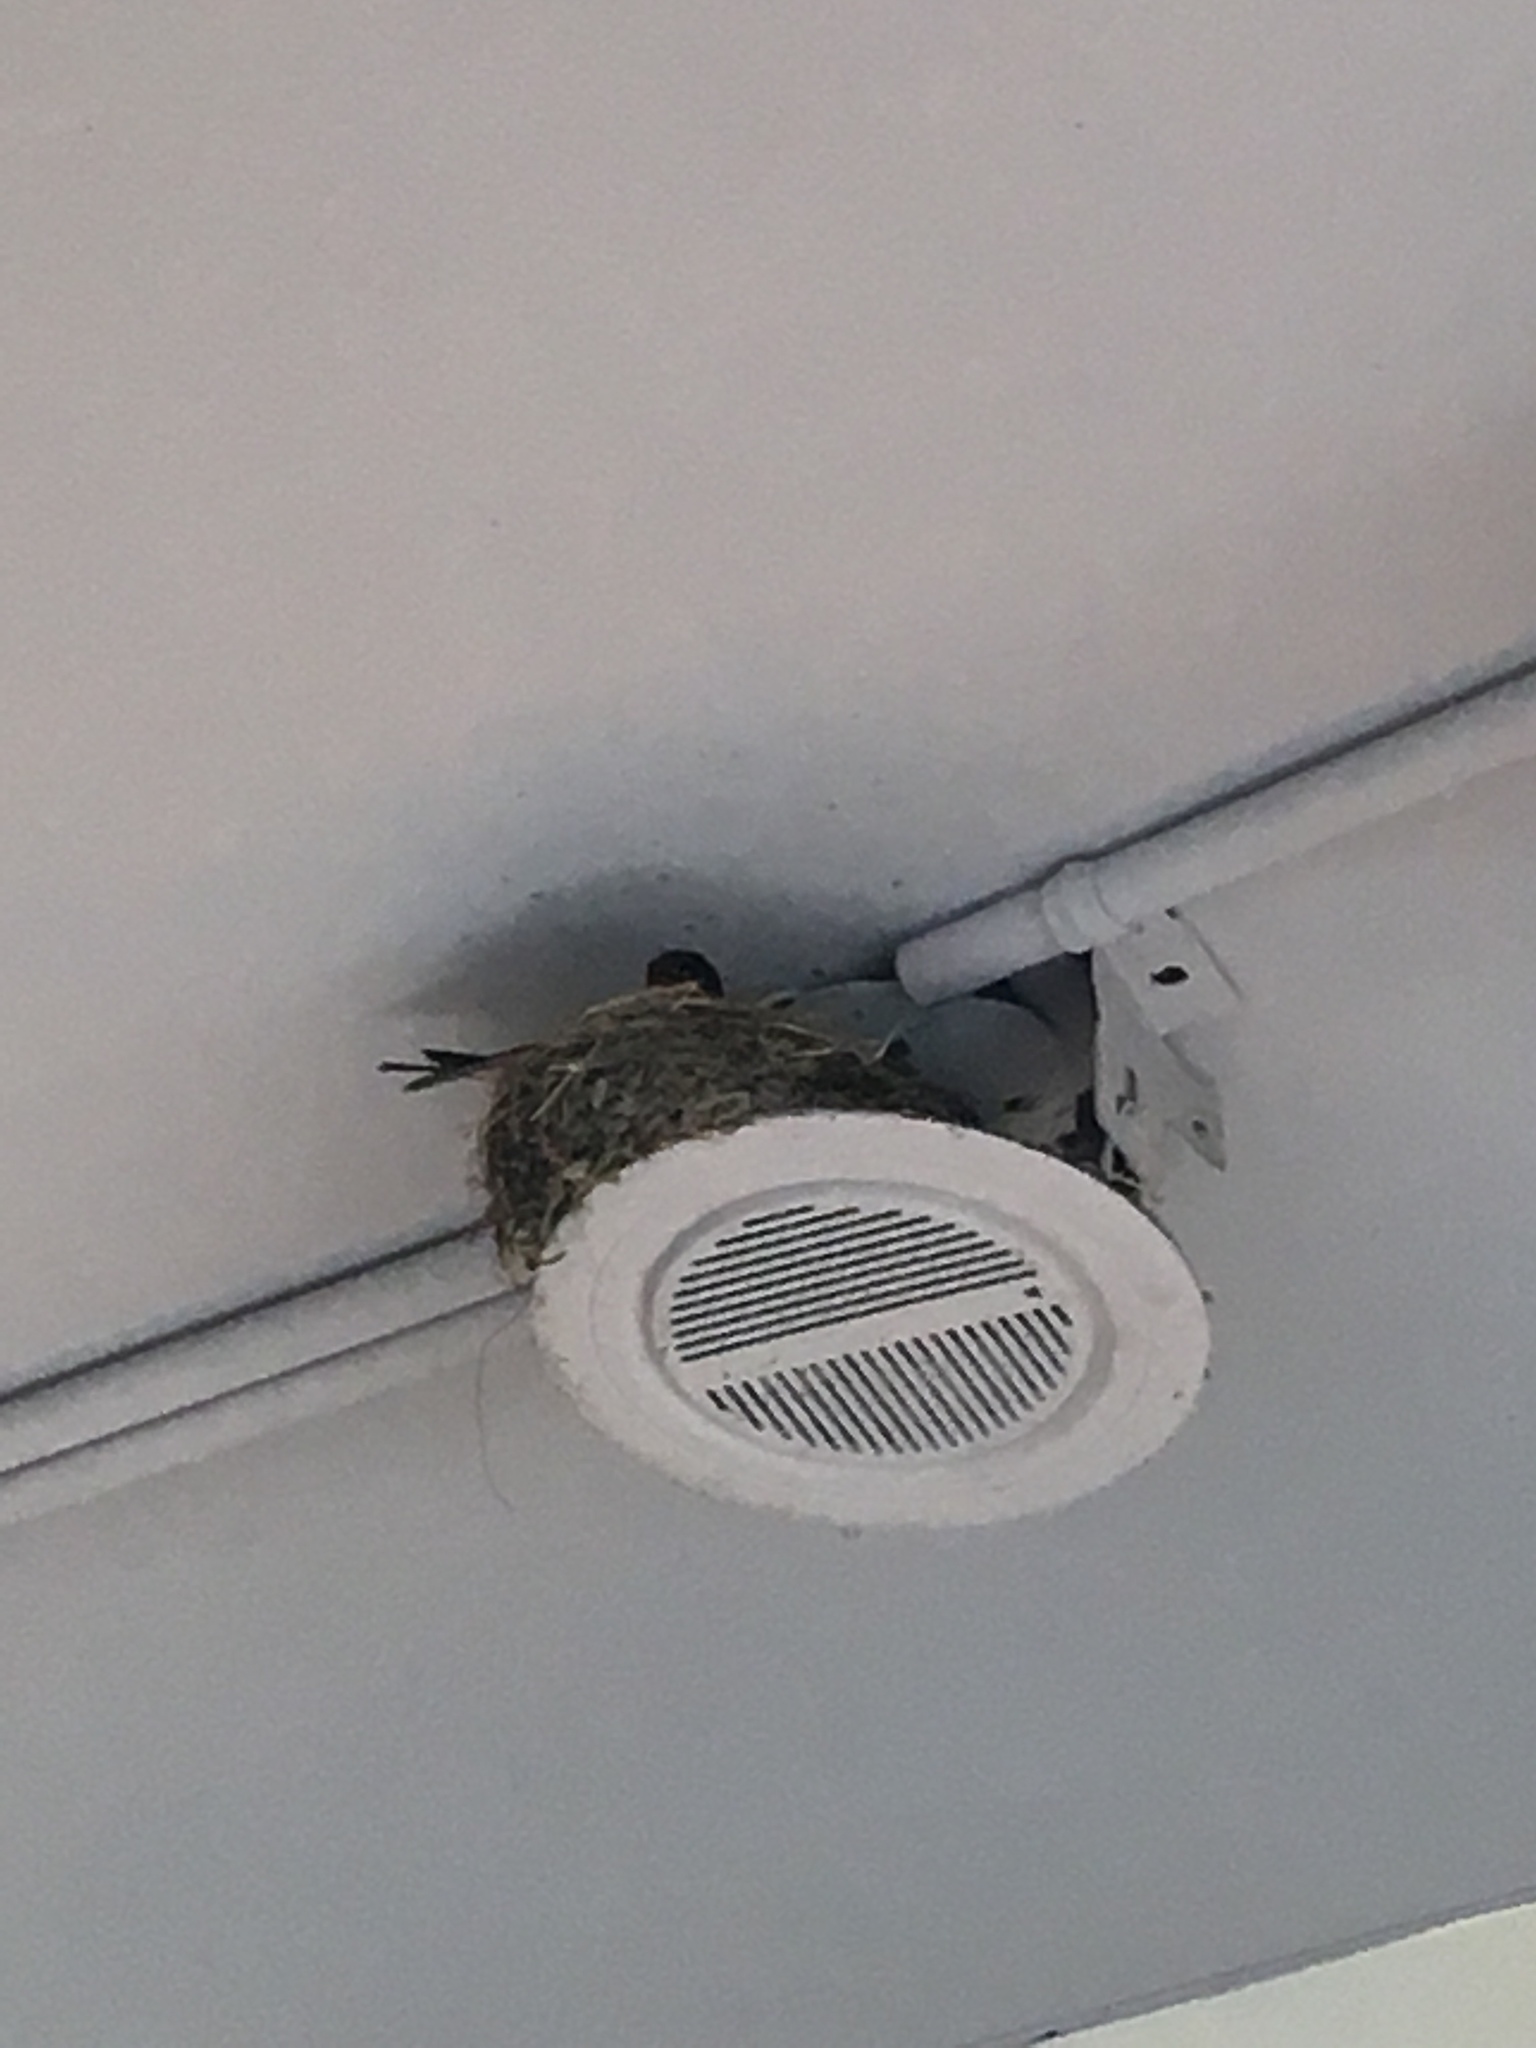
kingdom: Animalia
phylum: Chordata
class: Aves
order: Passeriformes
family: Hirundinidae
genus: Hirundo
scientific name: Hirundo rustica
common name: Barn swallow
